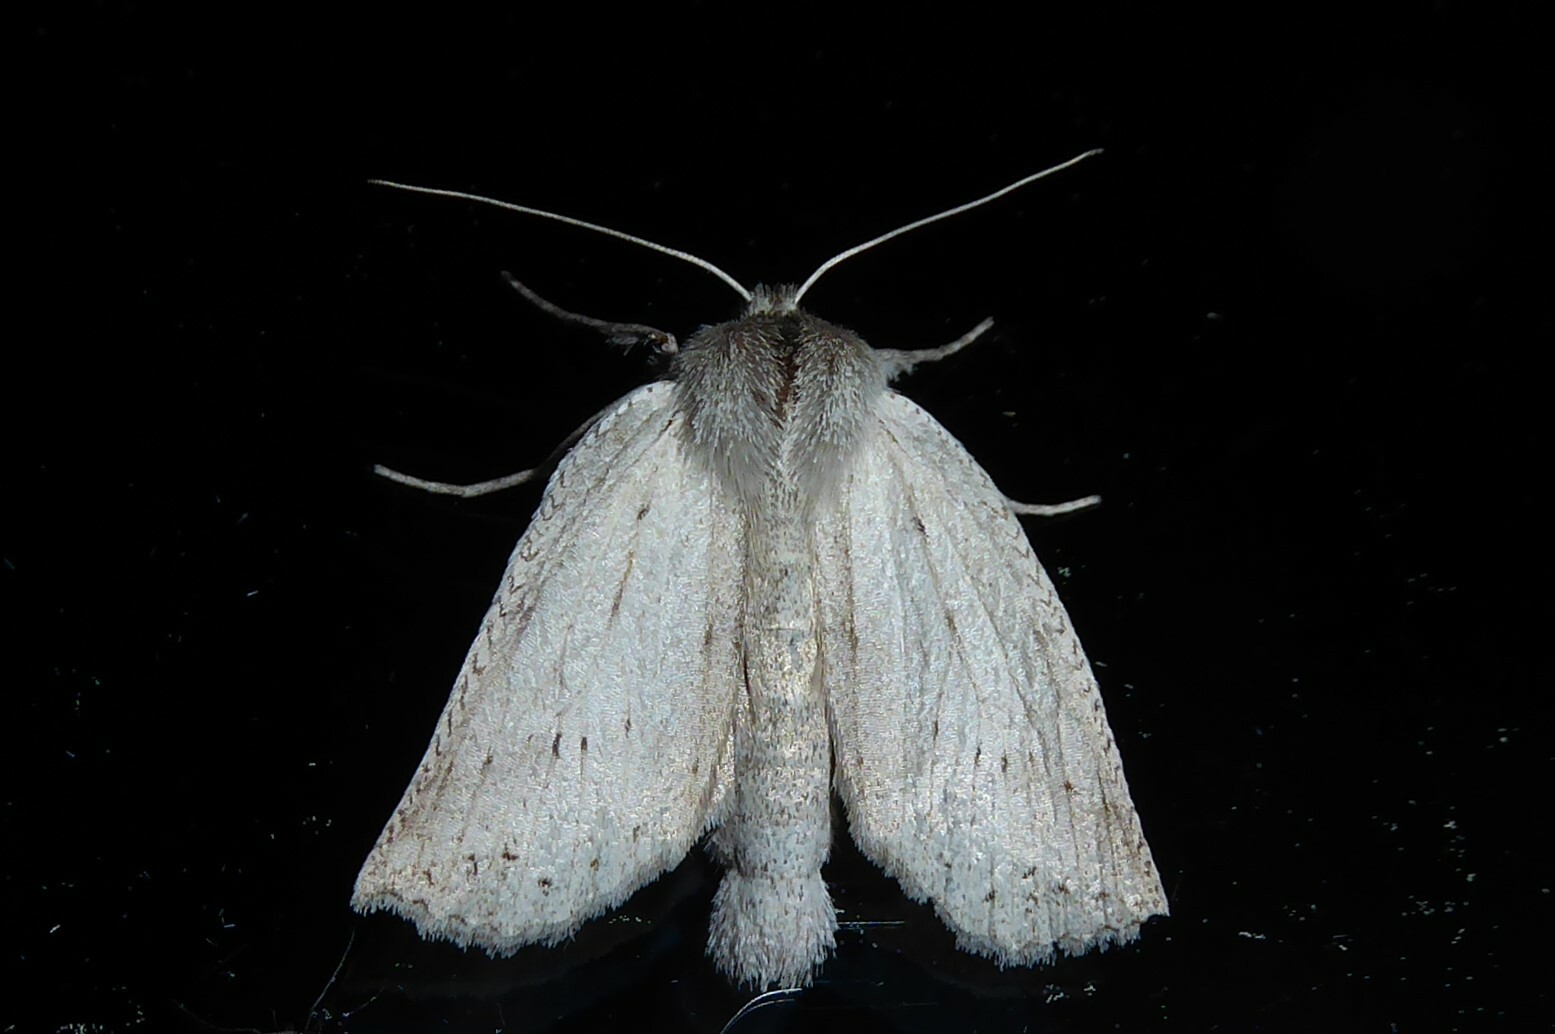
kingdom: Animalia
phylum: Arthropoda
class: Insecta
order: Lepidoptera
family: Geometridae
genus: Declana
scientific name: Declana leptomera
